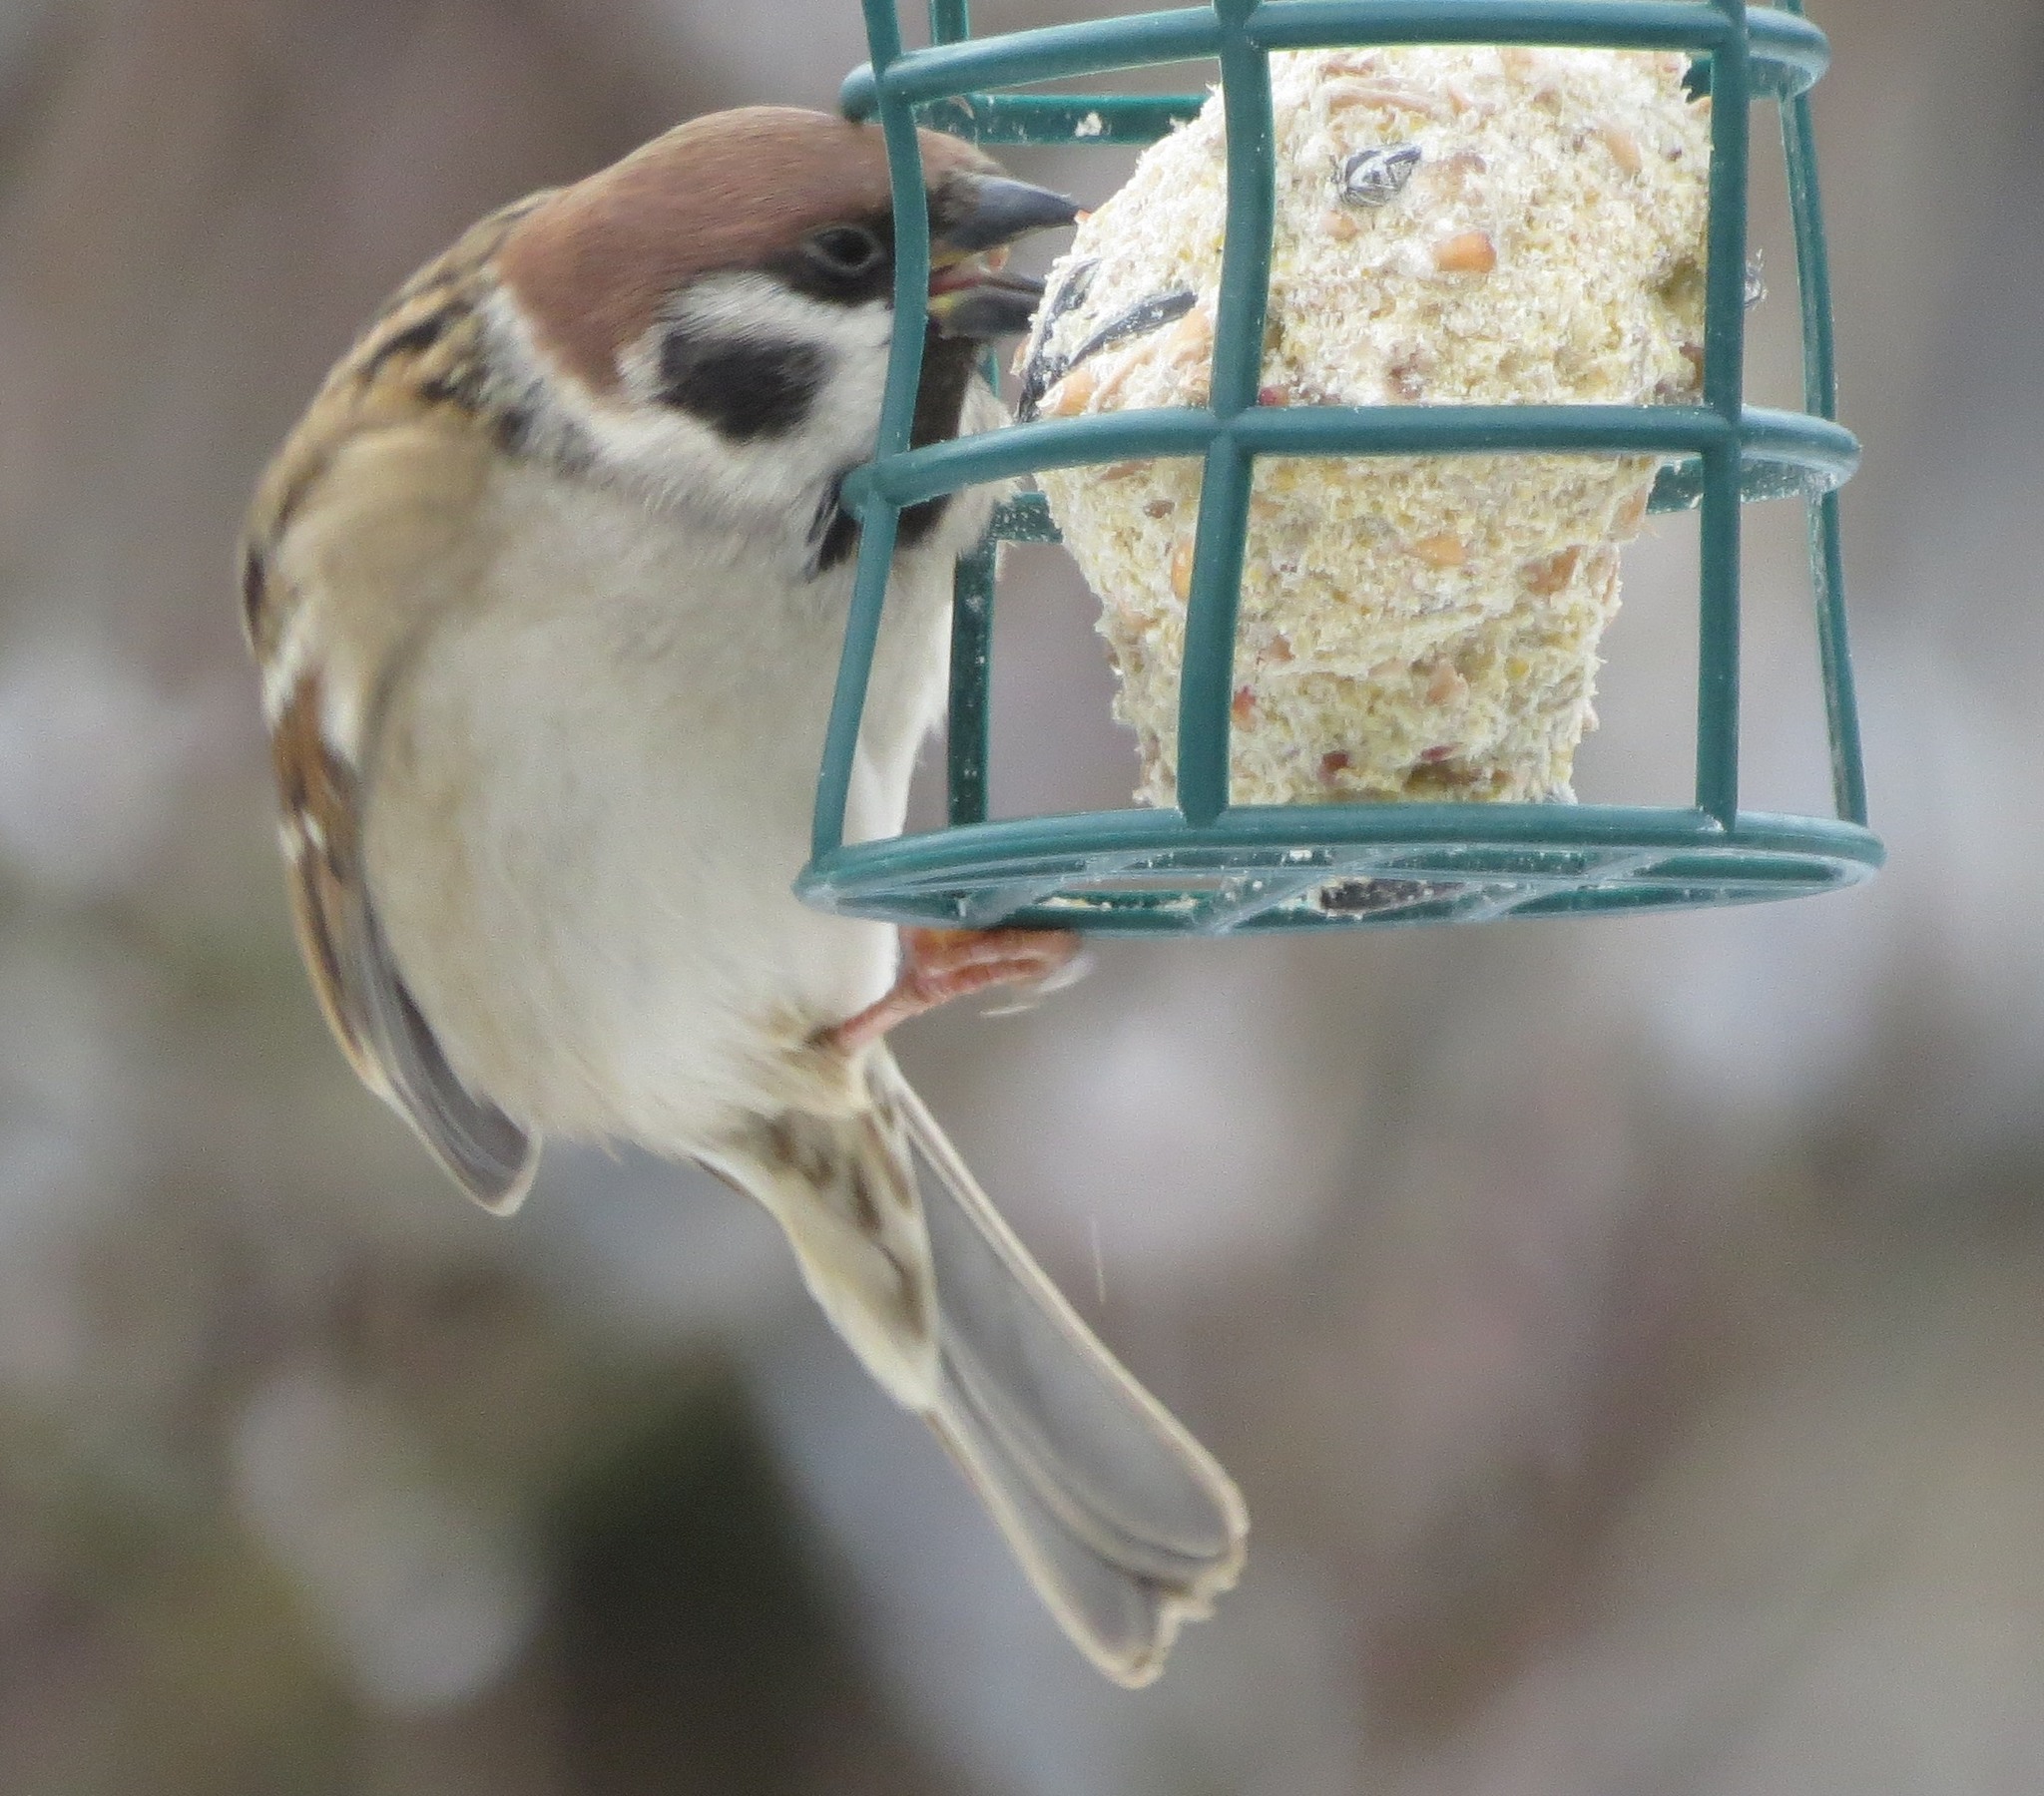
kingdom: Animalia
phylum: Chordata
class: Aves
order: Passeriformes
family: Passeridae
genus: Passer
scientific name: Passer montanus
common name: Eurasian tree sparrow
